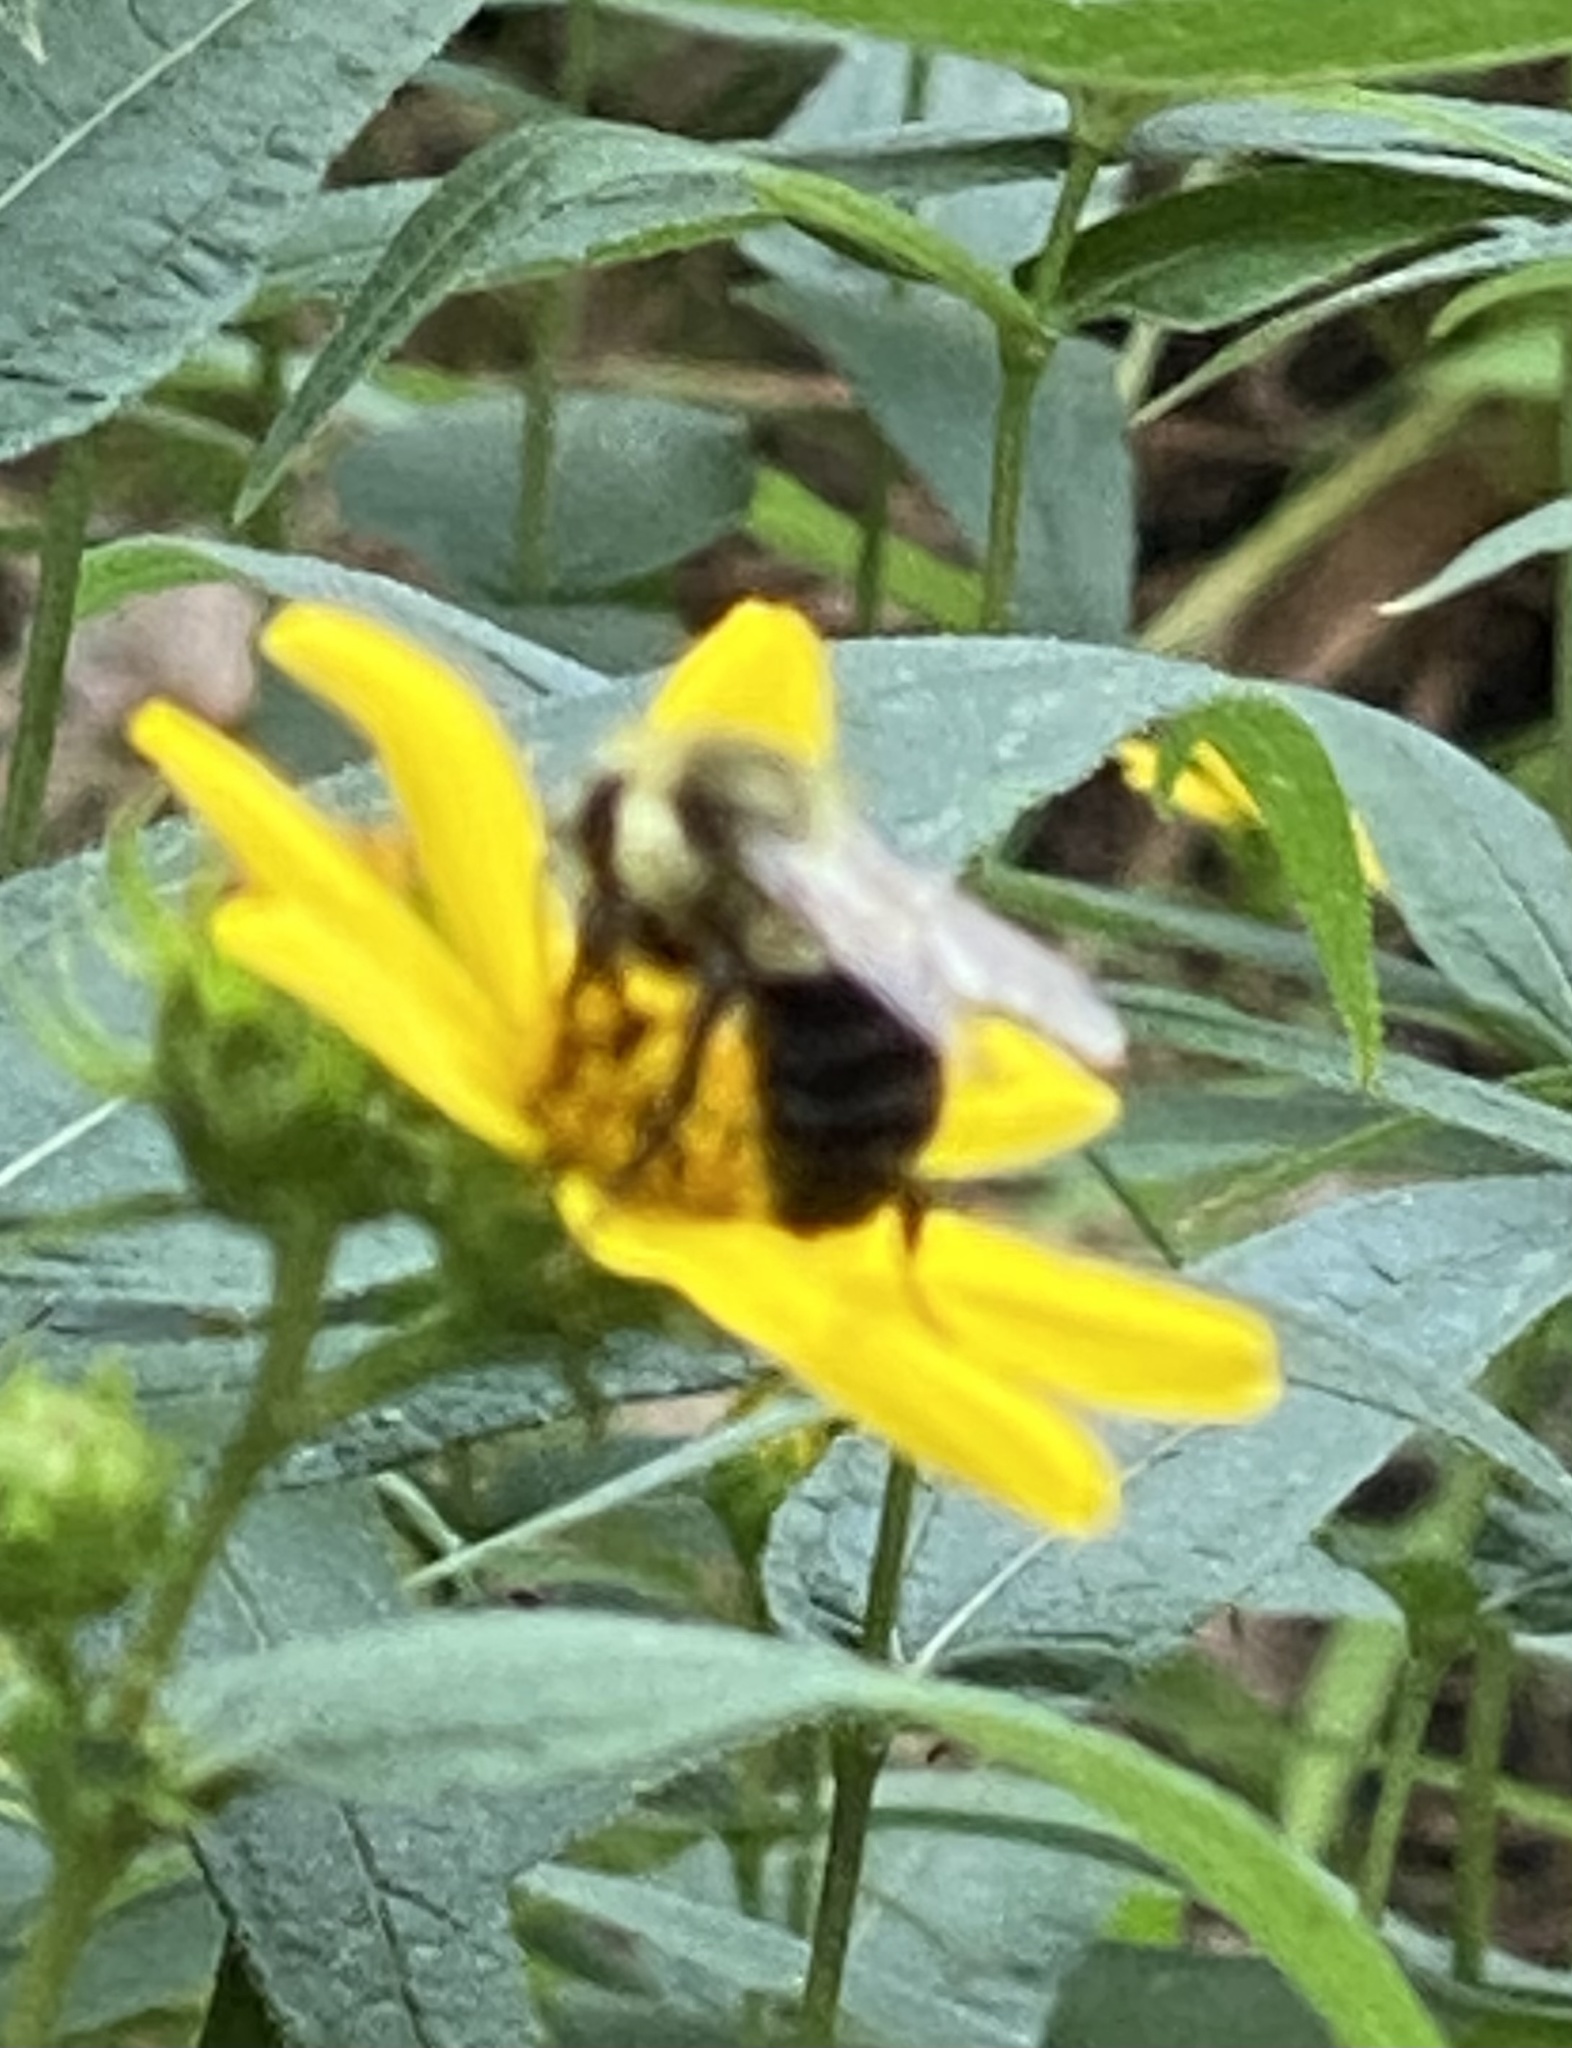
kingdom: Animalia
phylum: Arthropoda
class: Insecta
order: Hymenoptera
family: Apidae
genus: Bombus
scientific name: Bombus impatiens
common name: Common eastern bumble bee
